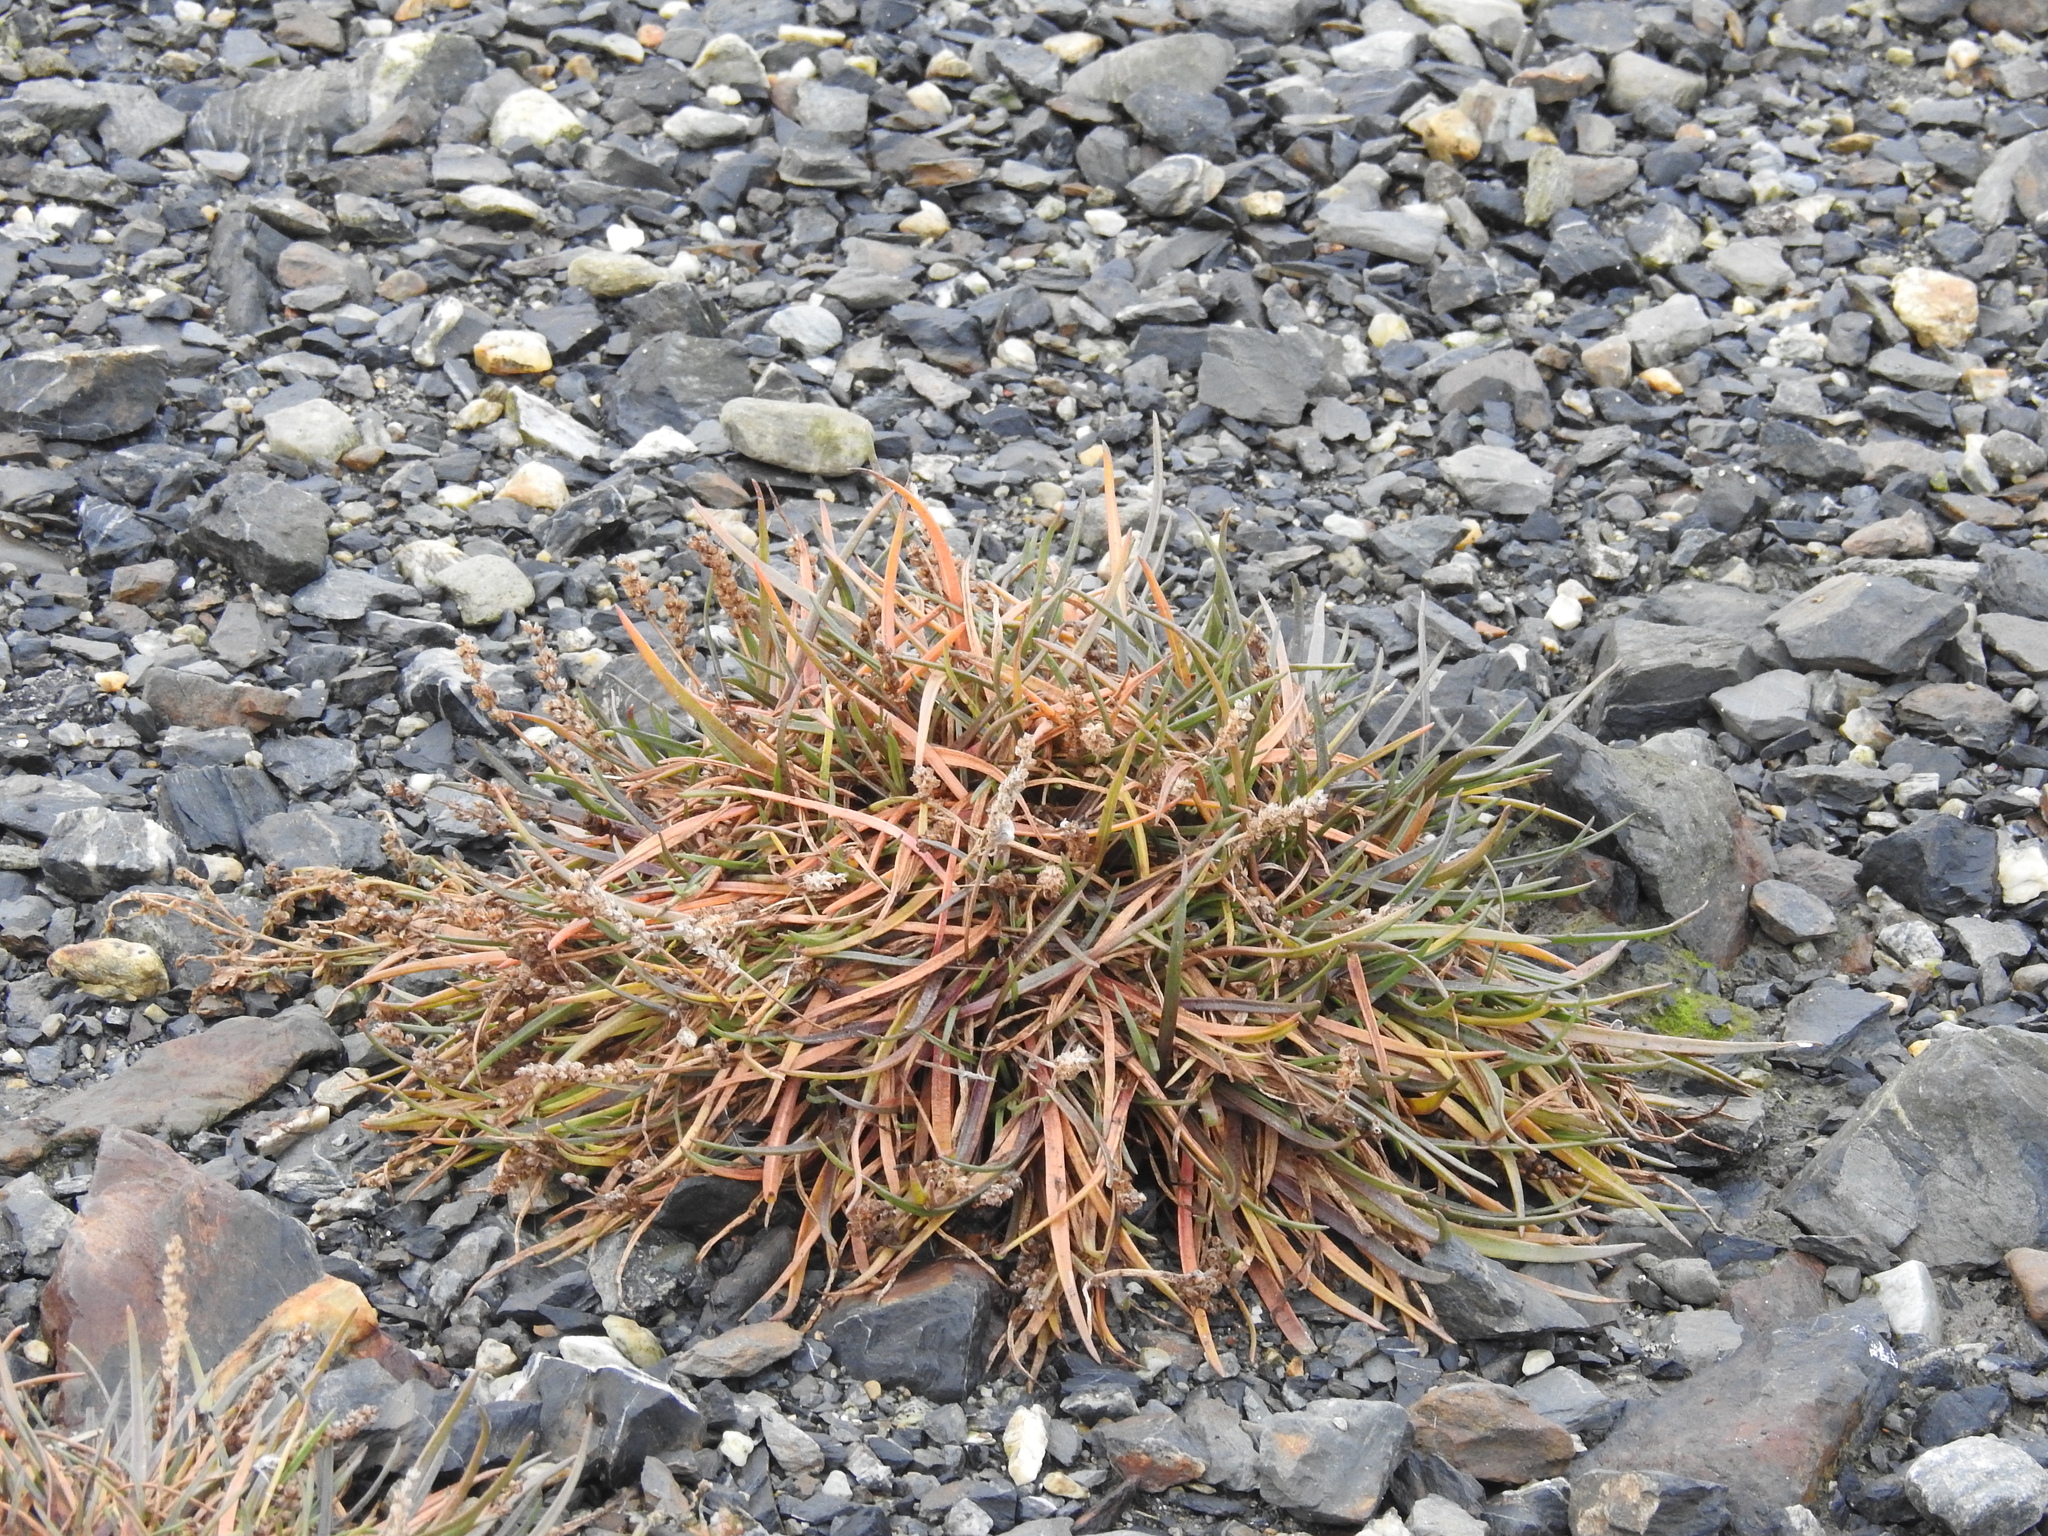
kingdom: Plantae
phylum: Tracheophyta
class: Magnoliopsida
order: Lamiales
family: Plantaginaceae
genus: Plantago
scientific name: Plantago maritima
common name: Sea plantain
